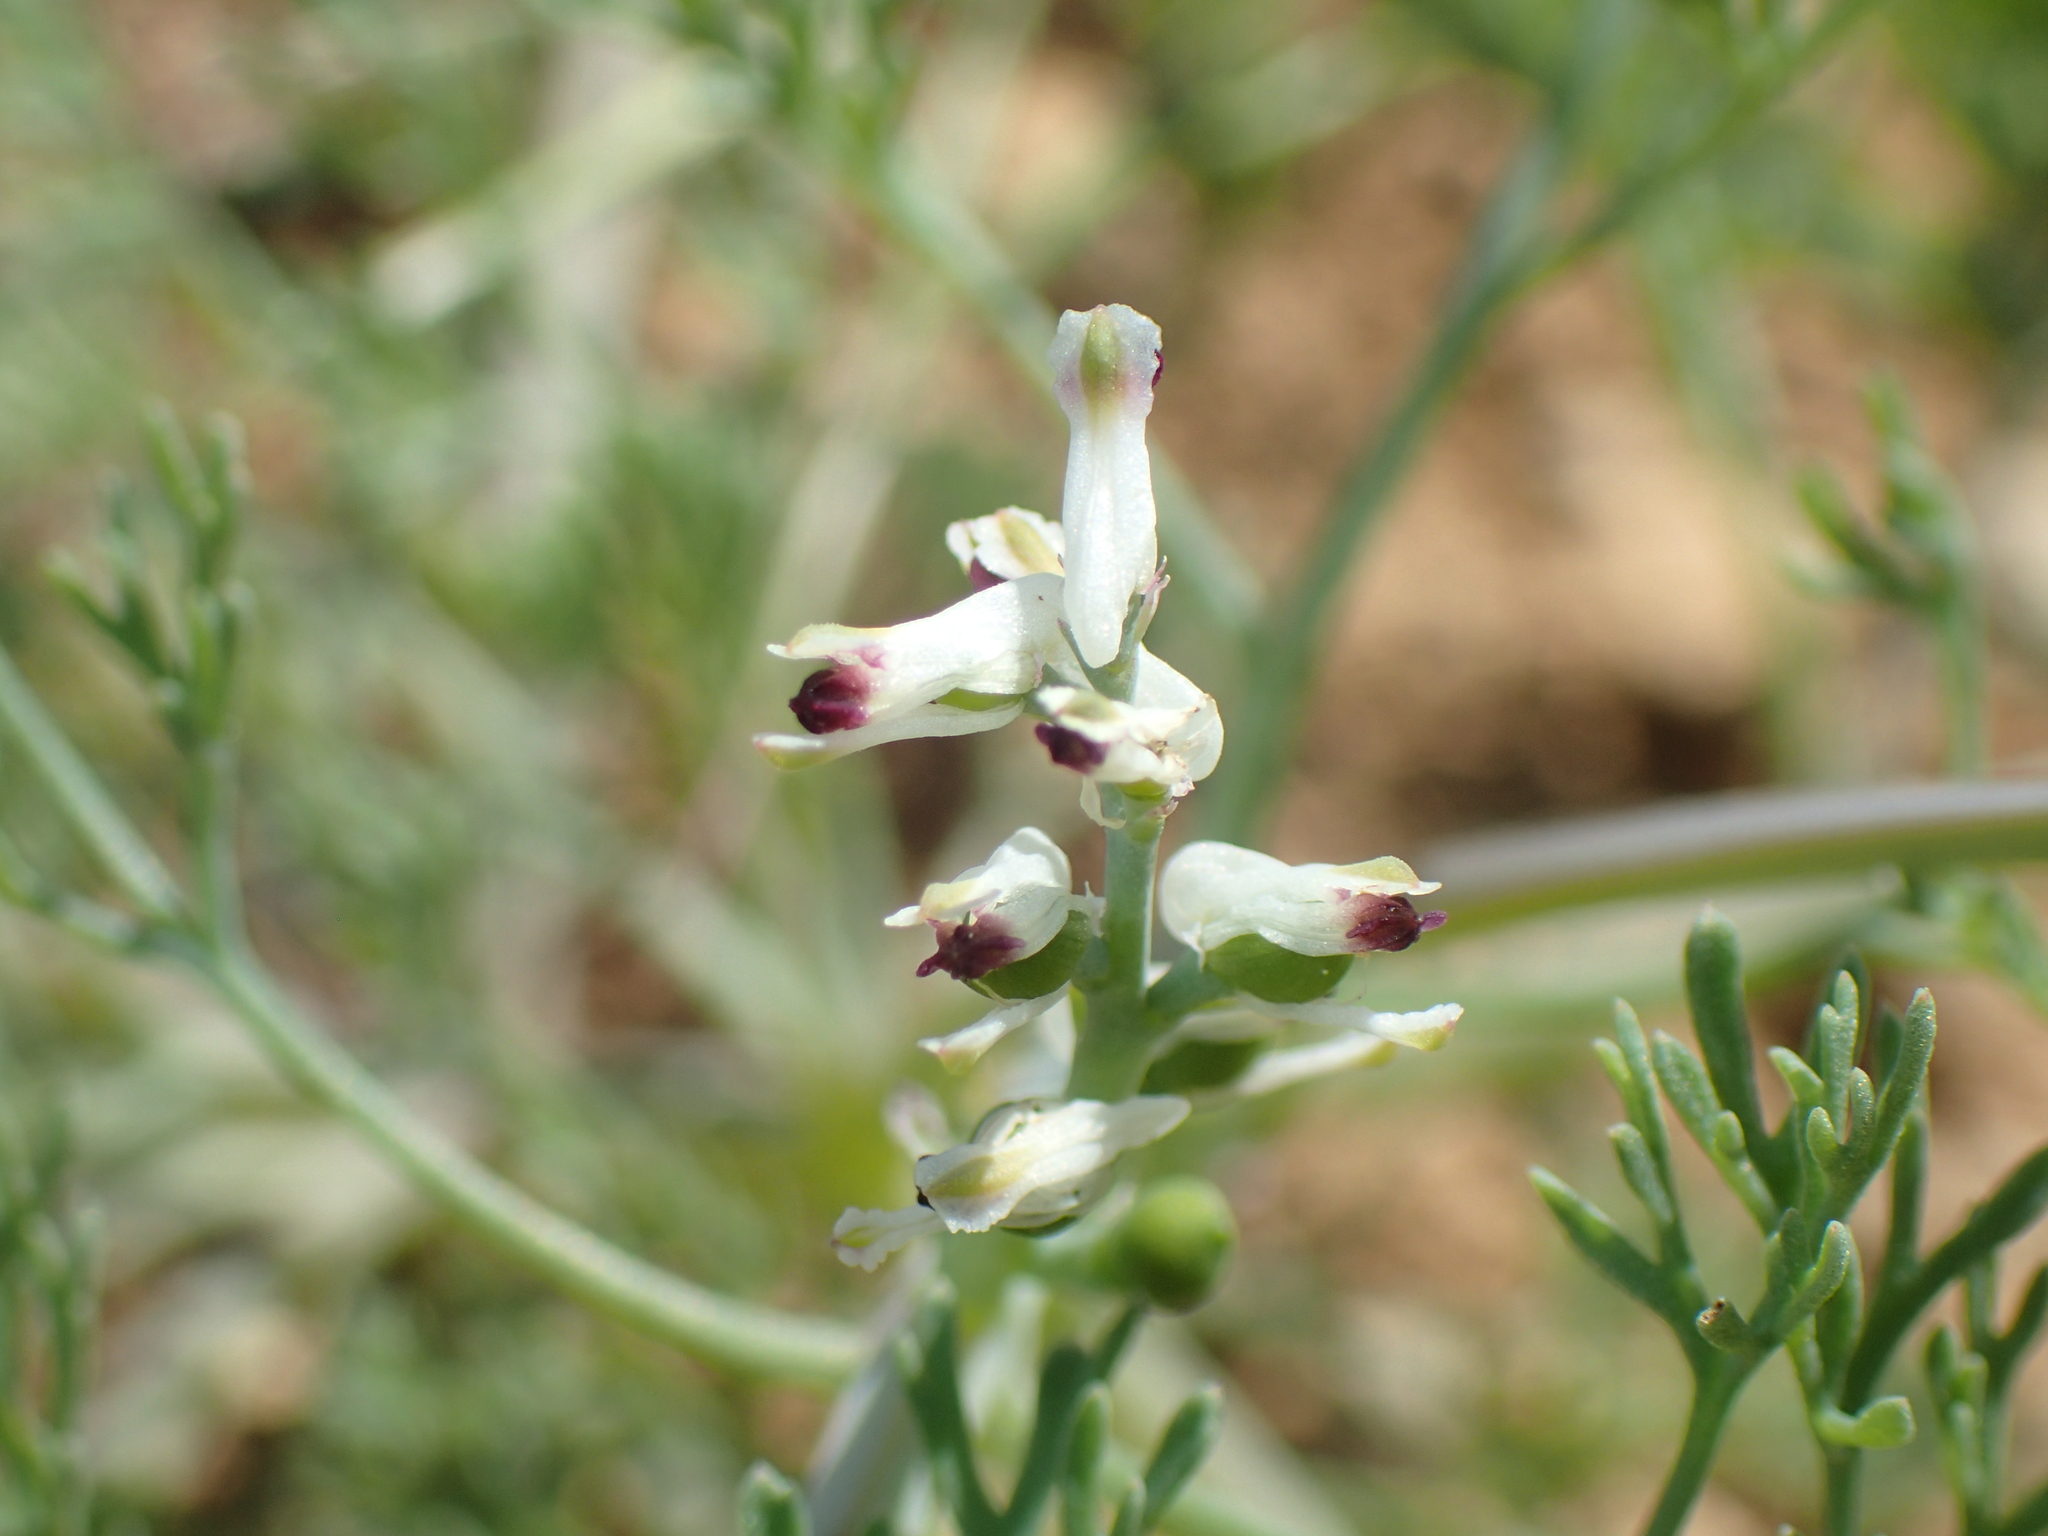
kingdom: Plantae
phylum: Tracheophyta
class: Magnoliopsida
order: Ranunculales
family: Papaveraceae
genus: Fumaria
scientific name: Fumaria capreolata
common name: White ramping-fumitory
